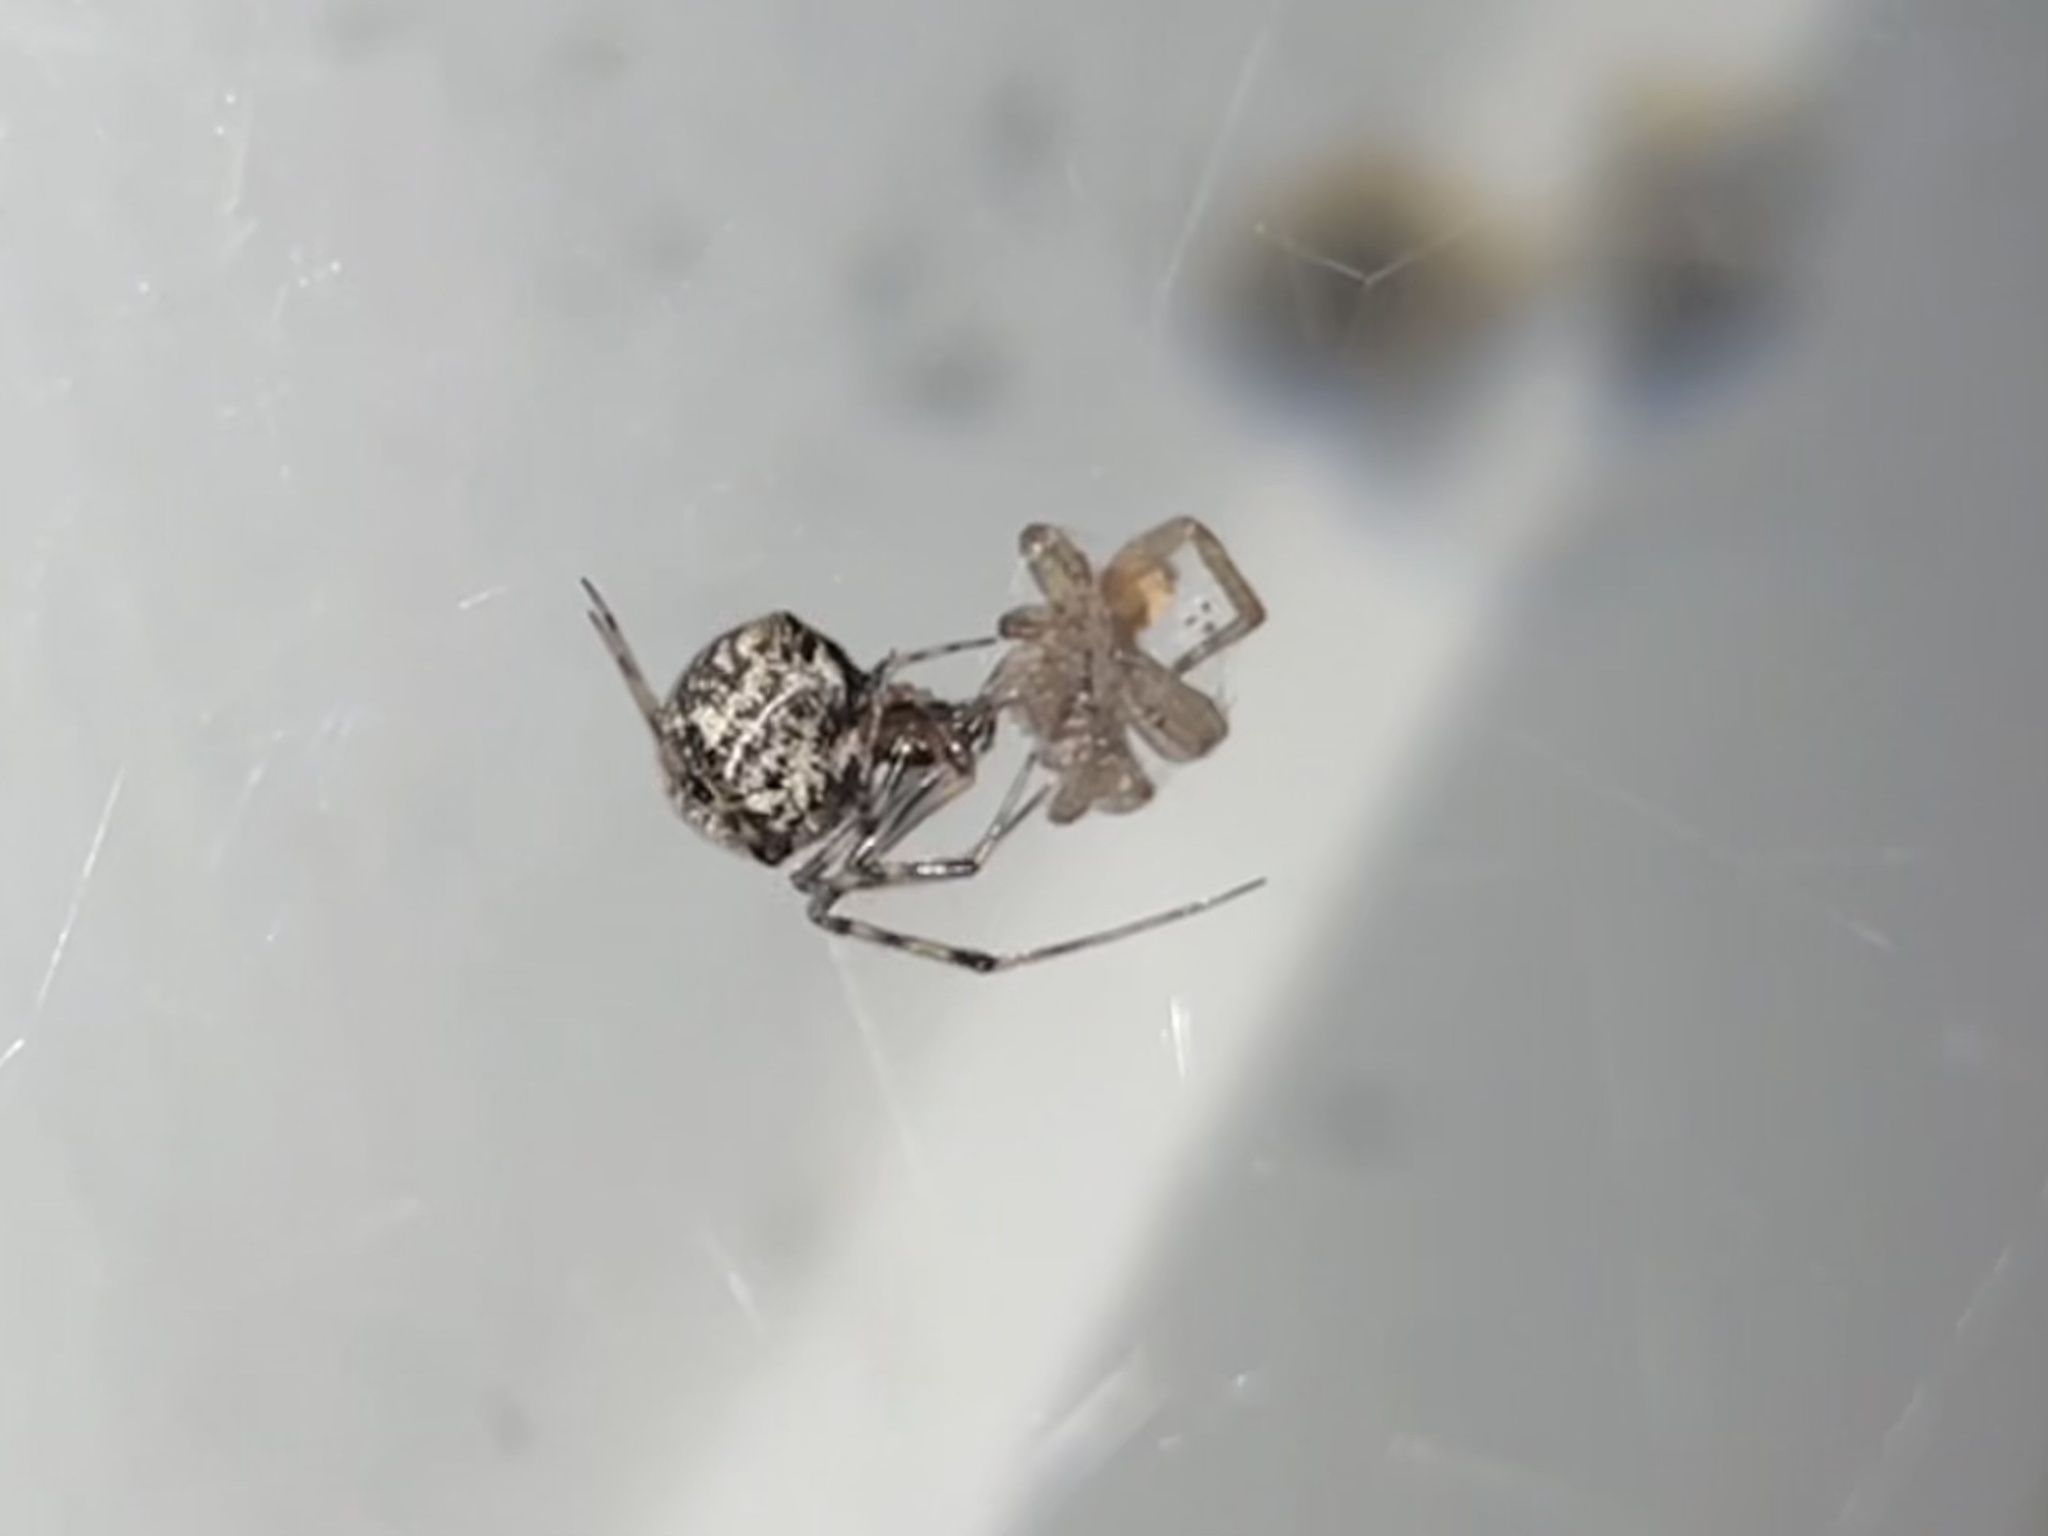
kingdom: Animalia
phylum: Arthropoda
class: Arachnida
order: Araneae
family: Theridiidae
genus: Parasteatoda
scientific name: Parasteatoda tepidariorum
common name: Common house spider
